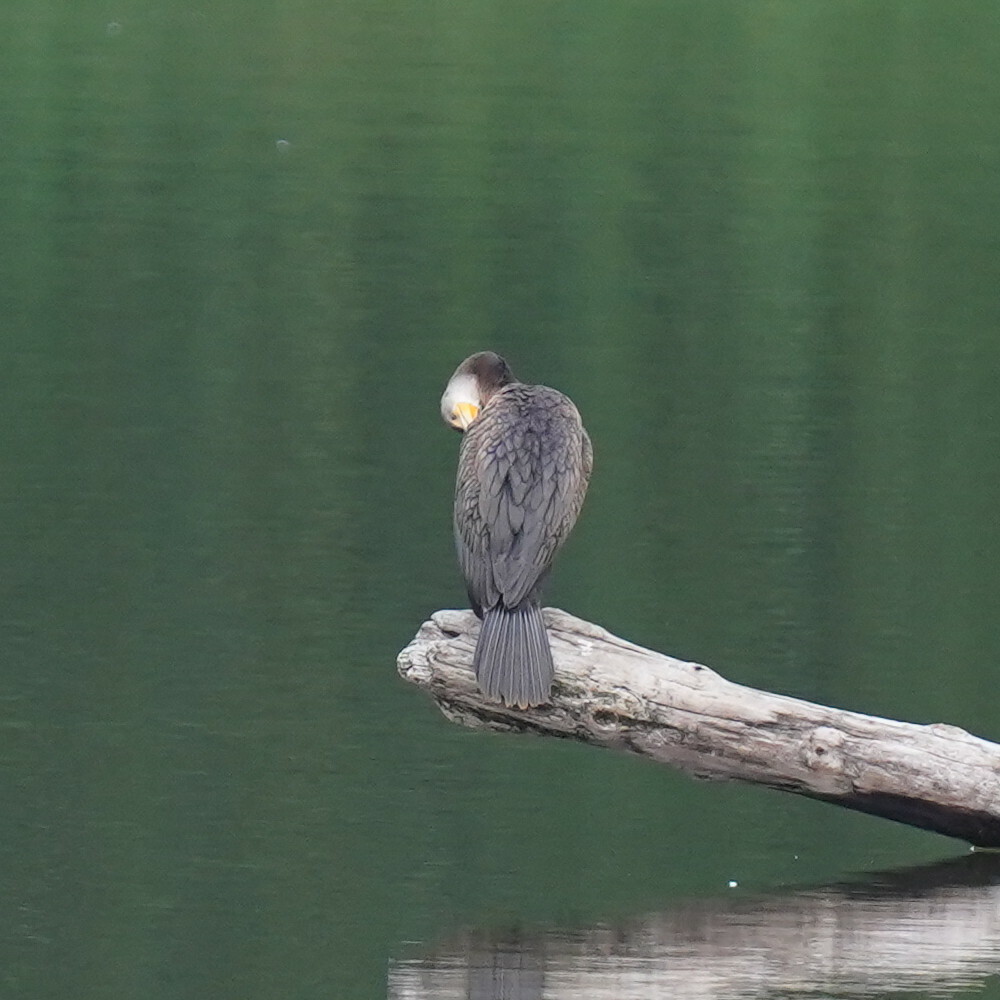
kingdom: Animalia
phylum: Chordata
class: Aves
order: Suliformes
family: Phalacrocoracidae
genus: Phalacrocorax
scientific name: Phalacrocorax auritus
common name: Double-crested cormorant
